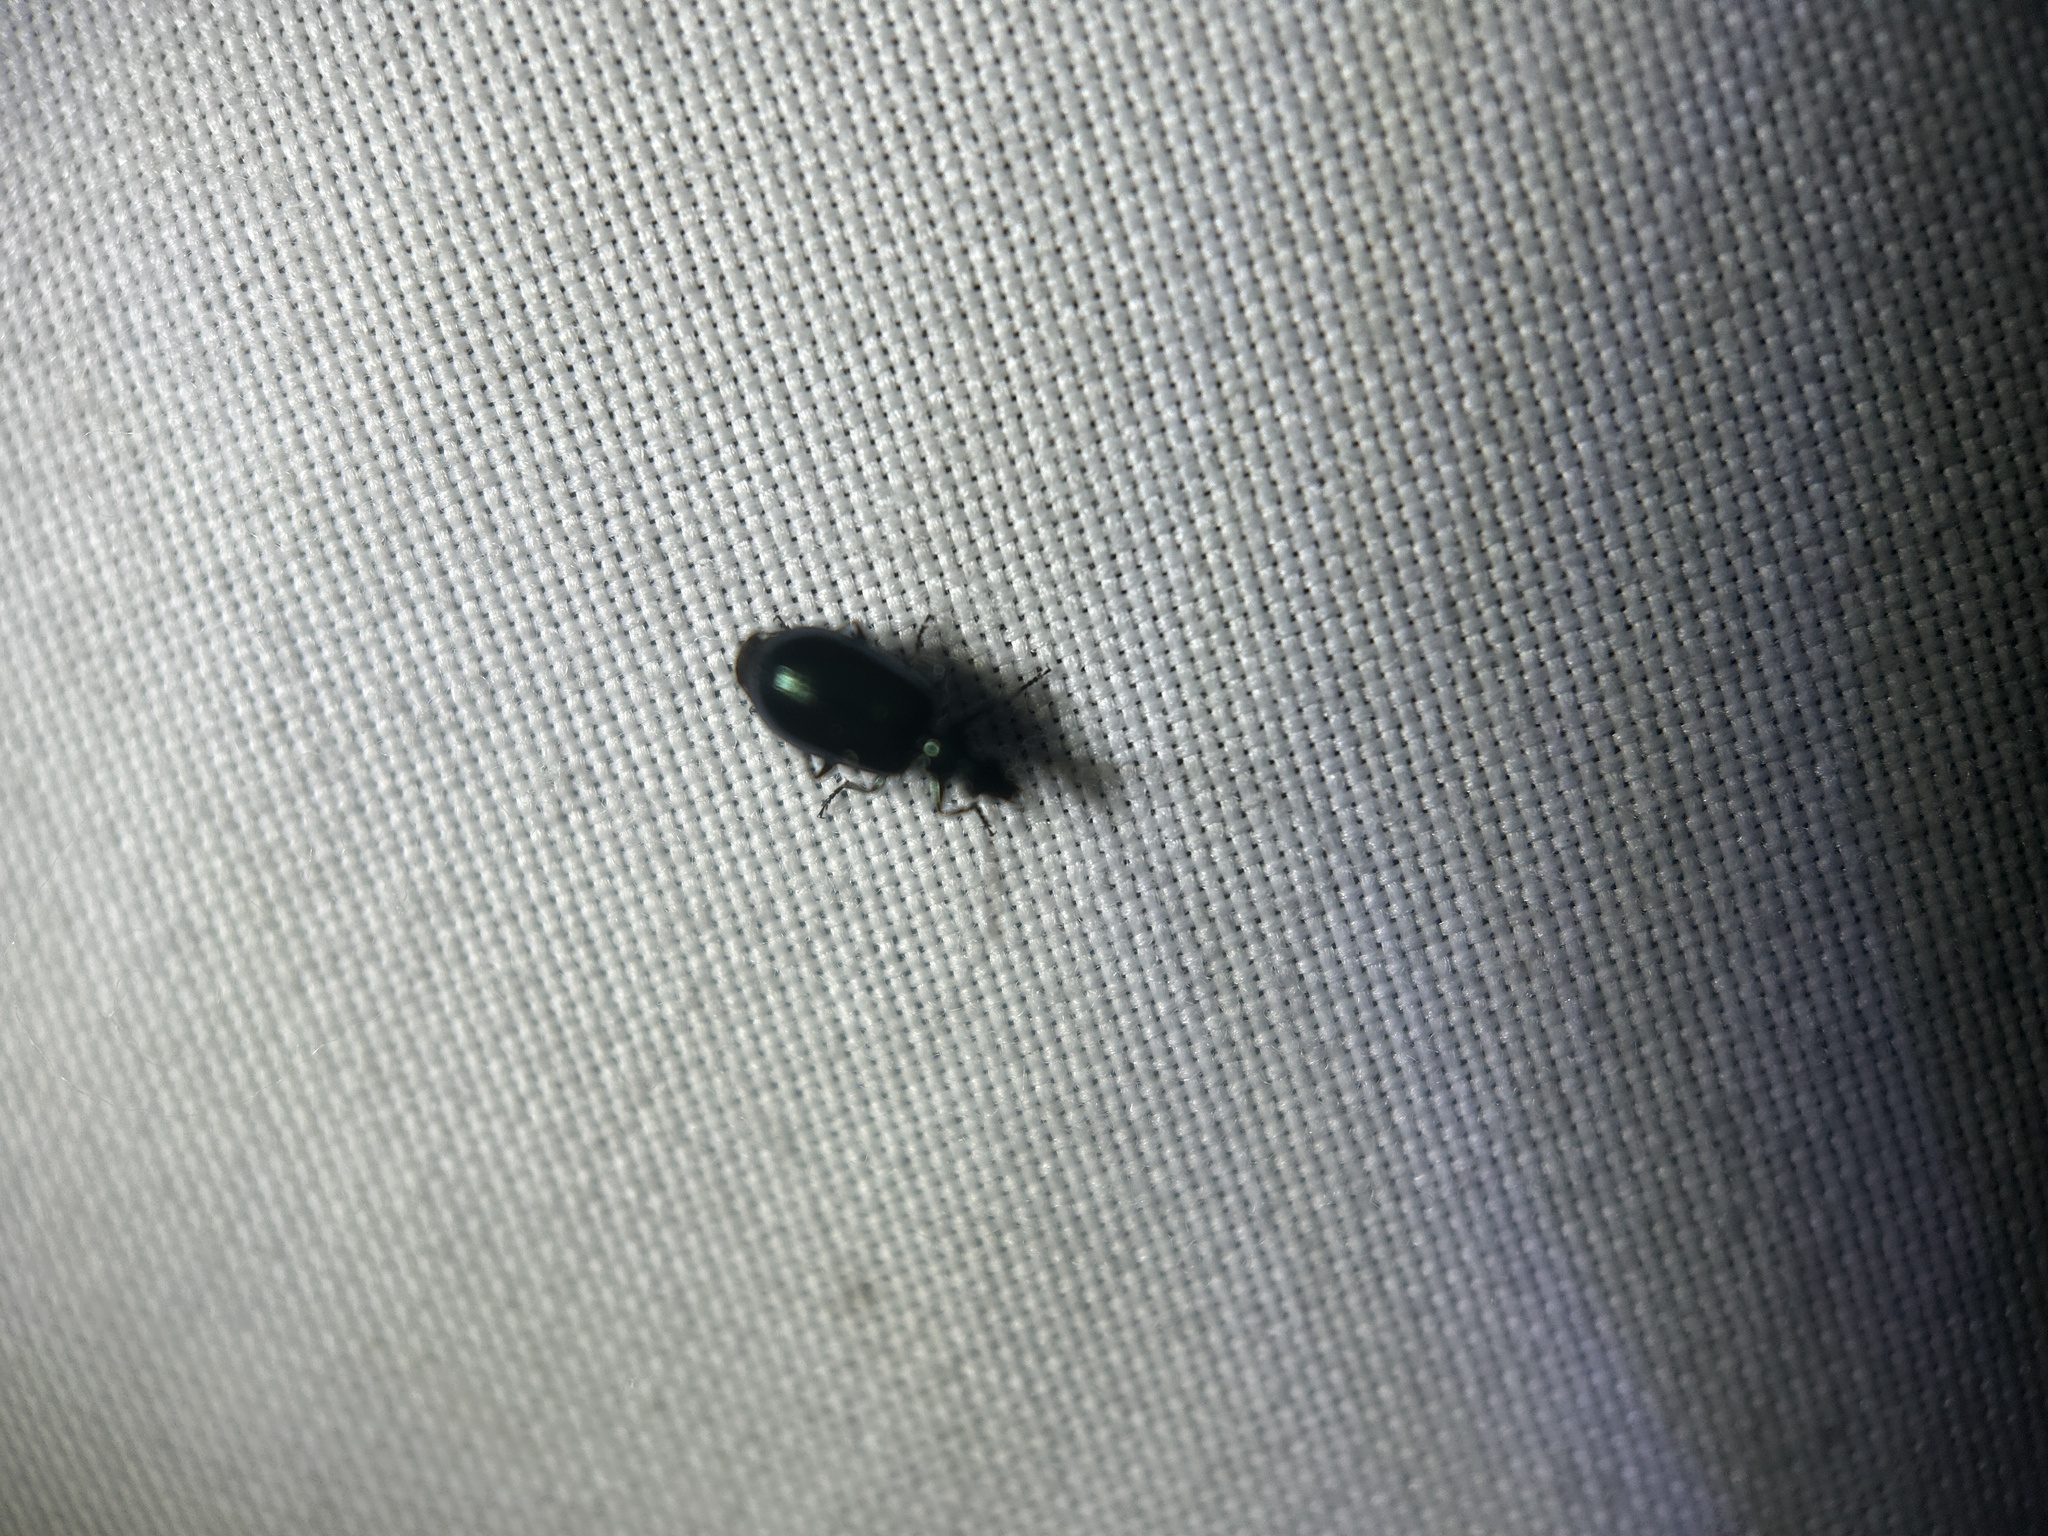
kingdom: Animalia
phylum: Arthropoda
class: Insecta
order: Coleoptera
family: Carabidae
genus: Lebia
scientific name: Lebia viridis
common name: Flower lebia beetle
